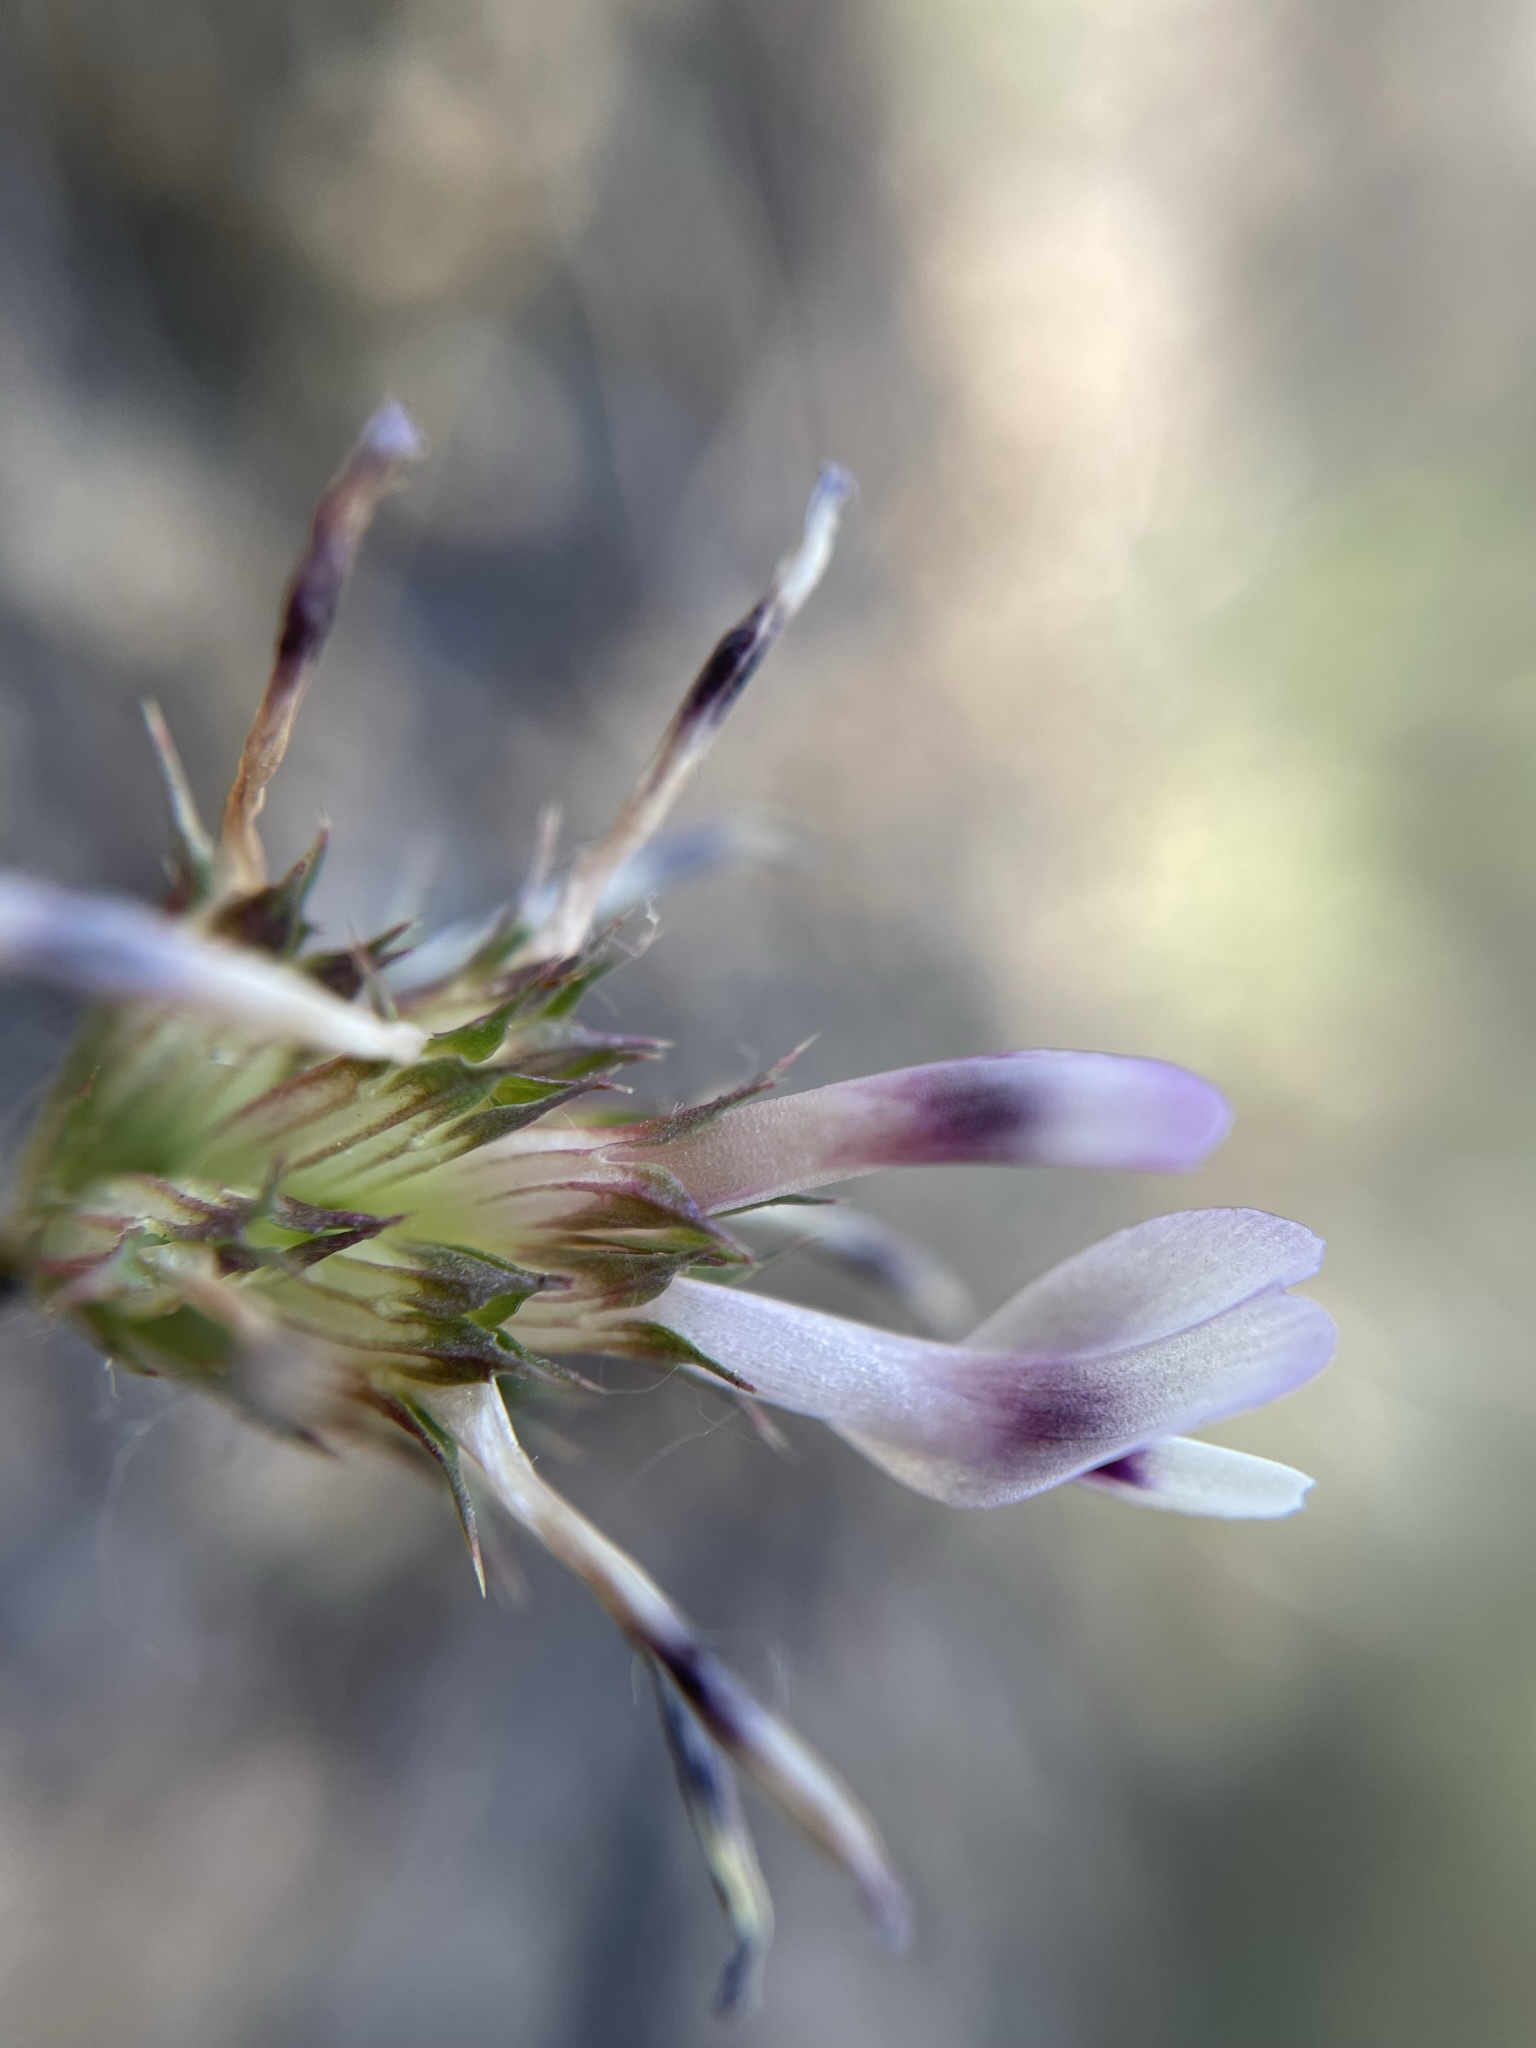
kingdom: Plantae
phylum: Tracheophyta
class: Magnoliopsida
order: Fabales
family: Fabaceae
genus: Trifolium
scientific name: Trifolium willdenovii
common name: Tomcat clover
